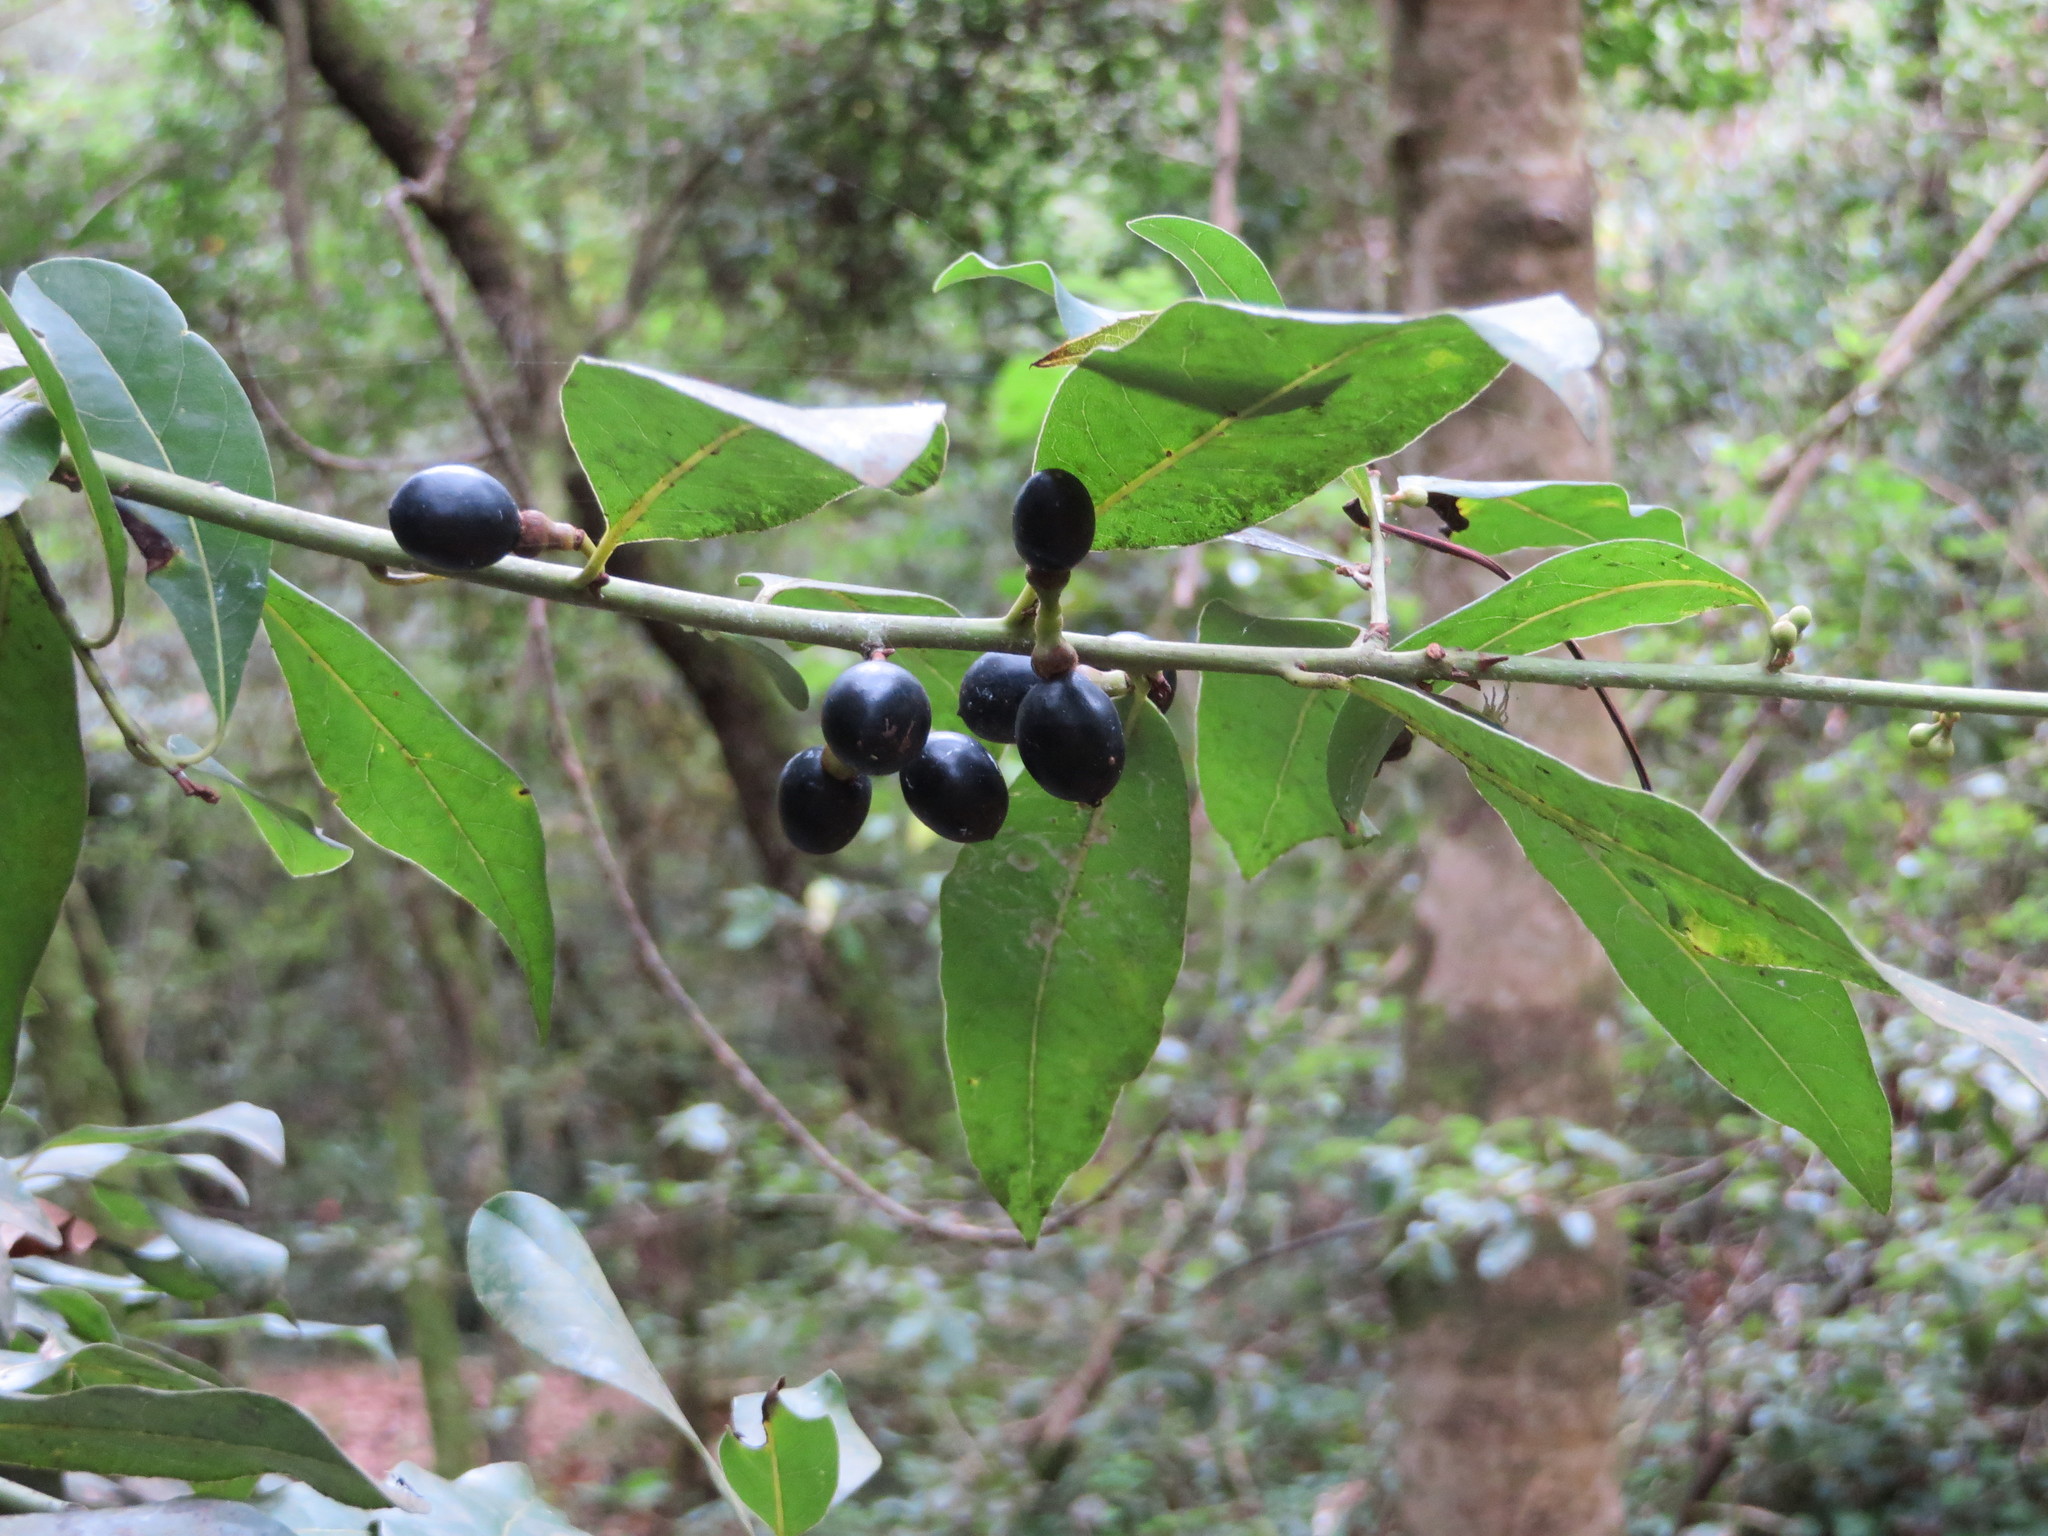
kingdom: Plantae
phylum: Tracheophyta
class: Magnoliopsida
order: Laurales
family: Lauraceae
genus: Laurus
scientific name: Laurus nobilis
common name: Bay
